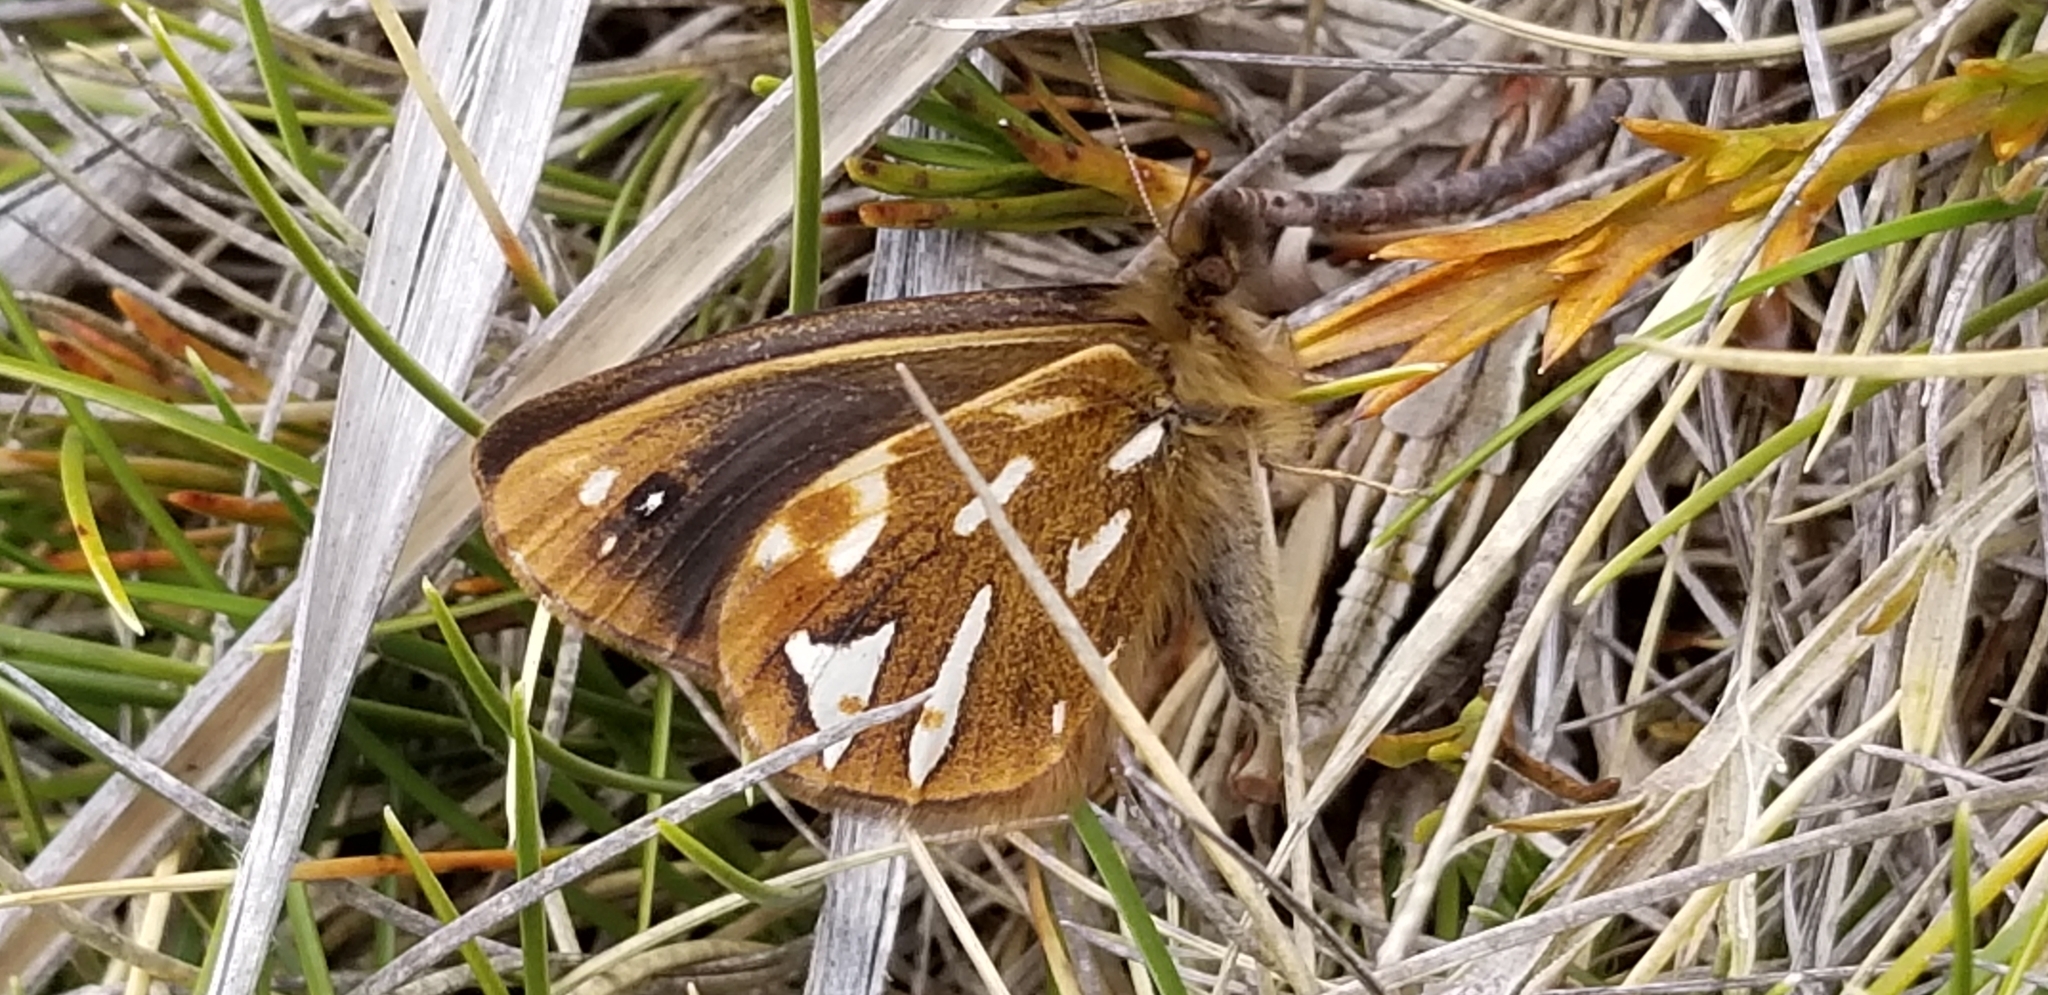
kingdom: Animalia
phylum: Arthropoda
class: Insecta
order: Lepidoptera
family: Nymphalidae
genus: Erebiola
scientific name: Erebiola butleri
